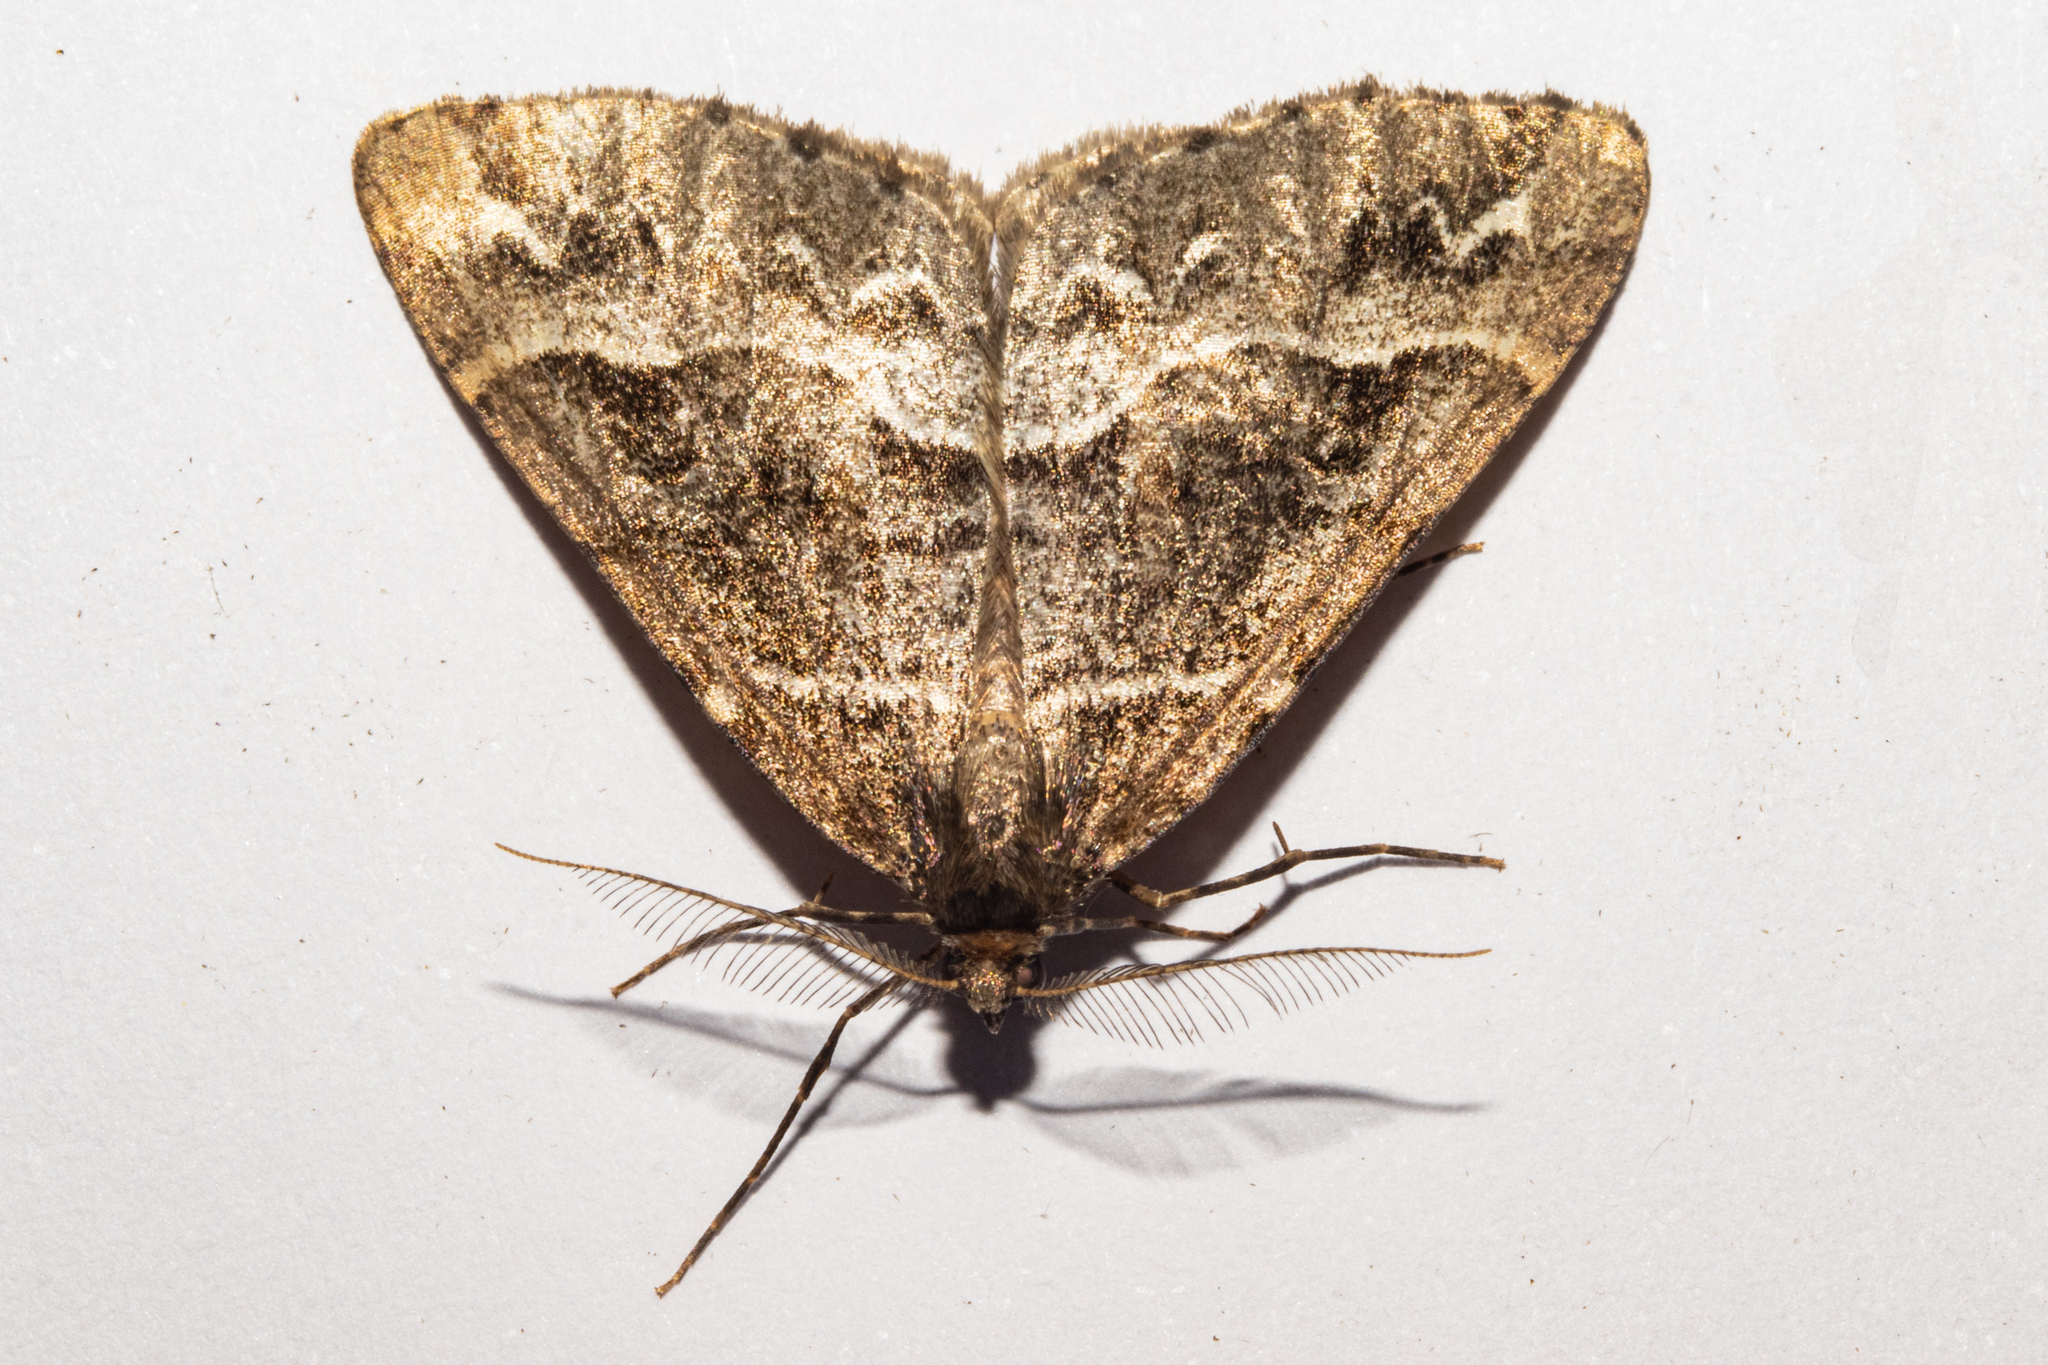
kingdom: Animalia
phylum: Arthropoda
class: Insecta
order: Lepidoptera
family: Geometridae
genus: Pseudocoremia
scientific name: Pseudocoremia colpogramma
